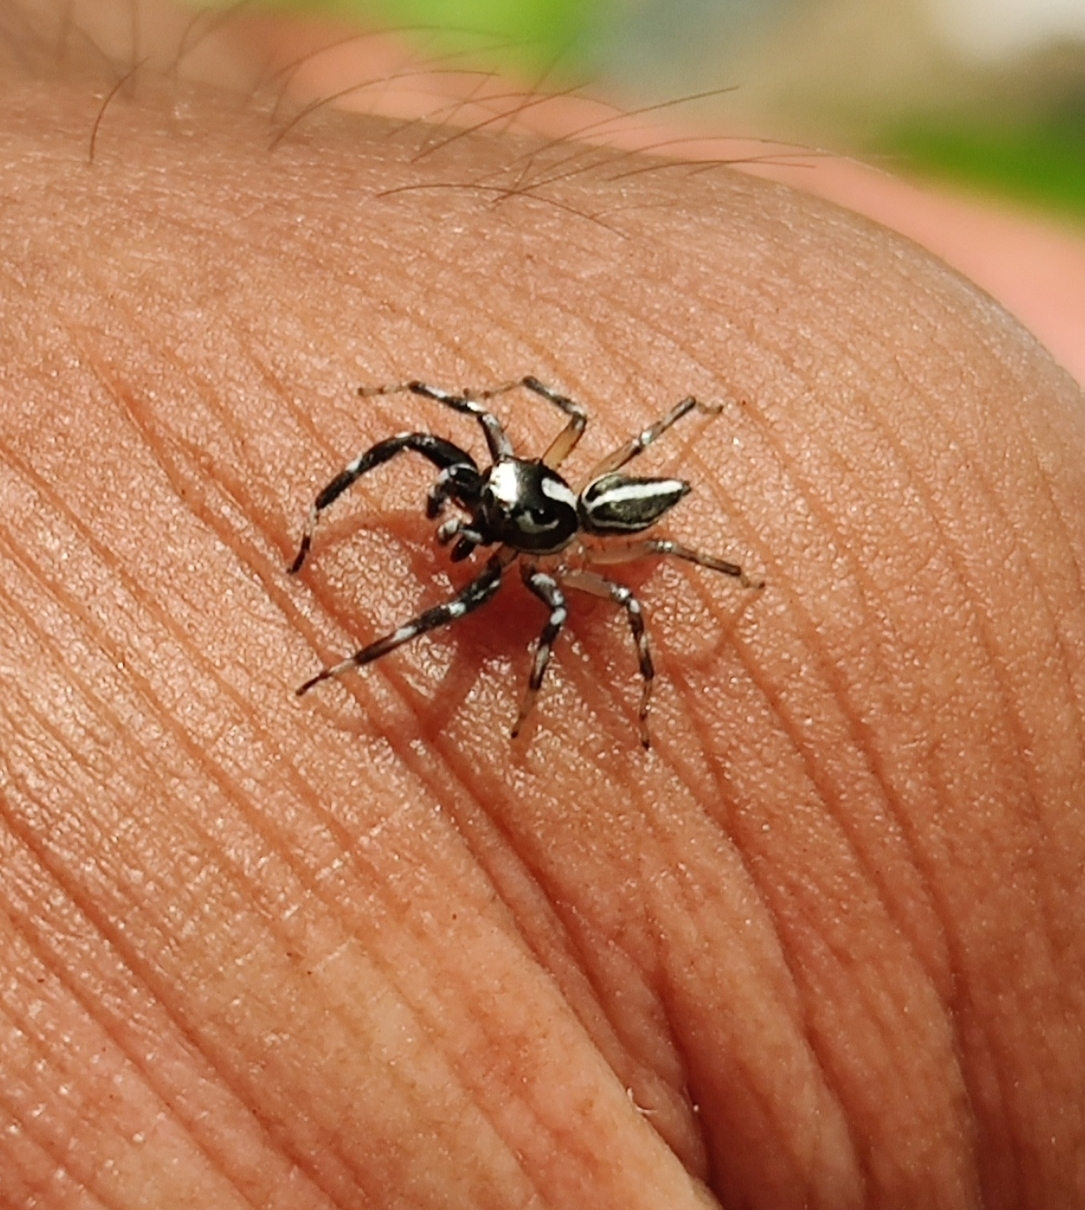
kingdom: Animalia
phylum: Arthropoda
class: Arachnida
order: Araneae
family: Salticidae
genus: Phintella
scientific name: Phintella platnicki
